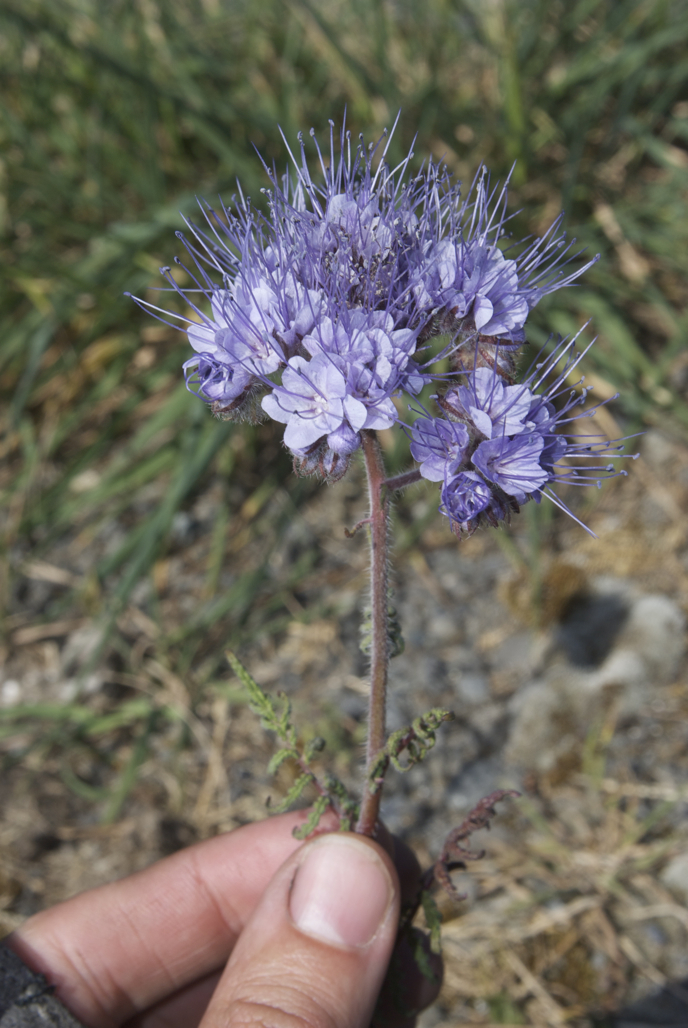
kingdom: Plantae
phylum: Tracheophyta
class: Magnoliopsida
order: Boraginales
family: Hydrophyllaceae
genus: Phacelia
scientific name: Phacelia tanacetifolia
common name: Phacelia
